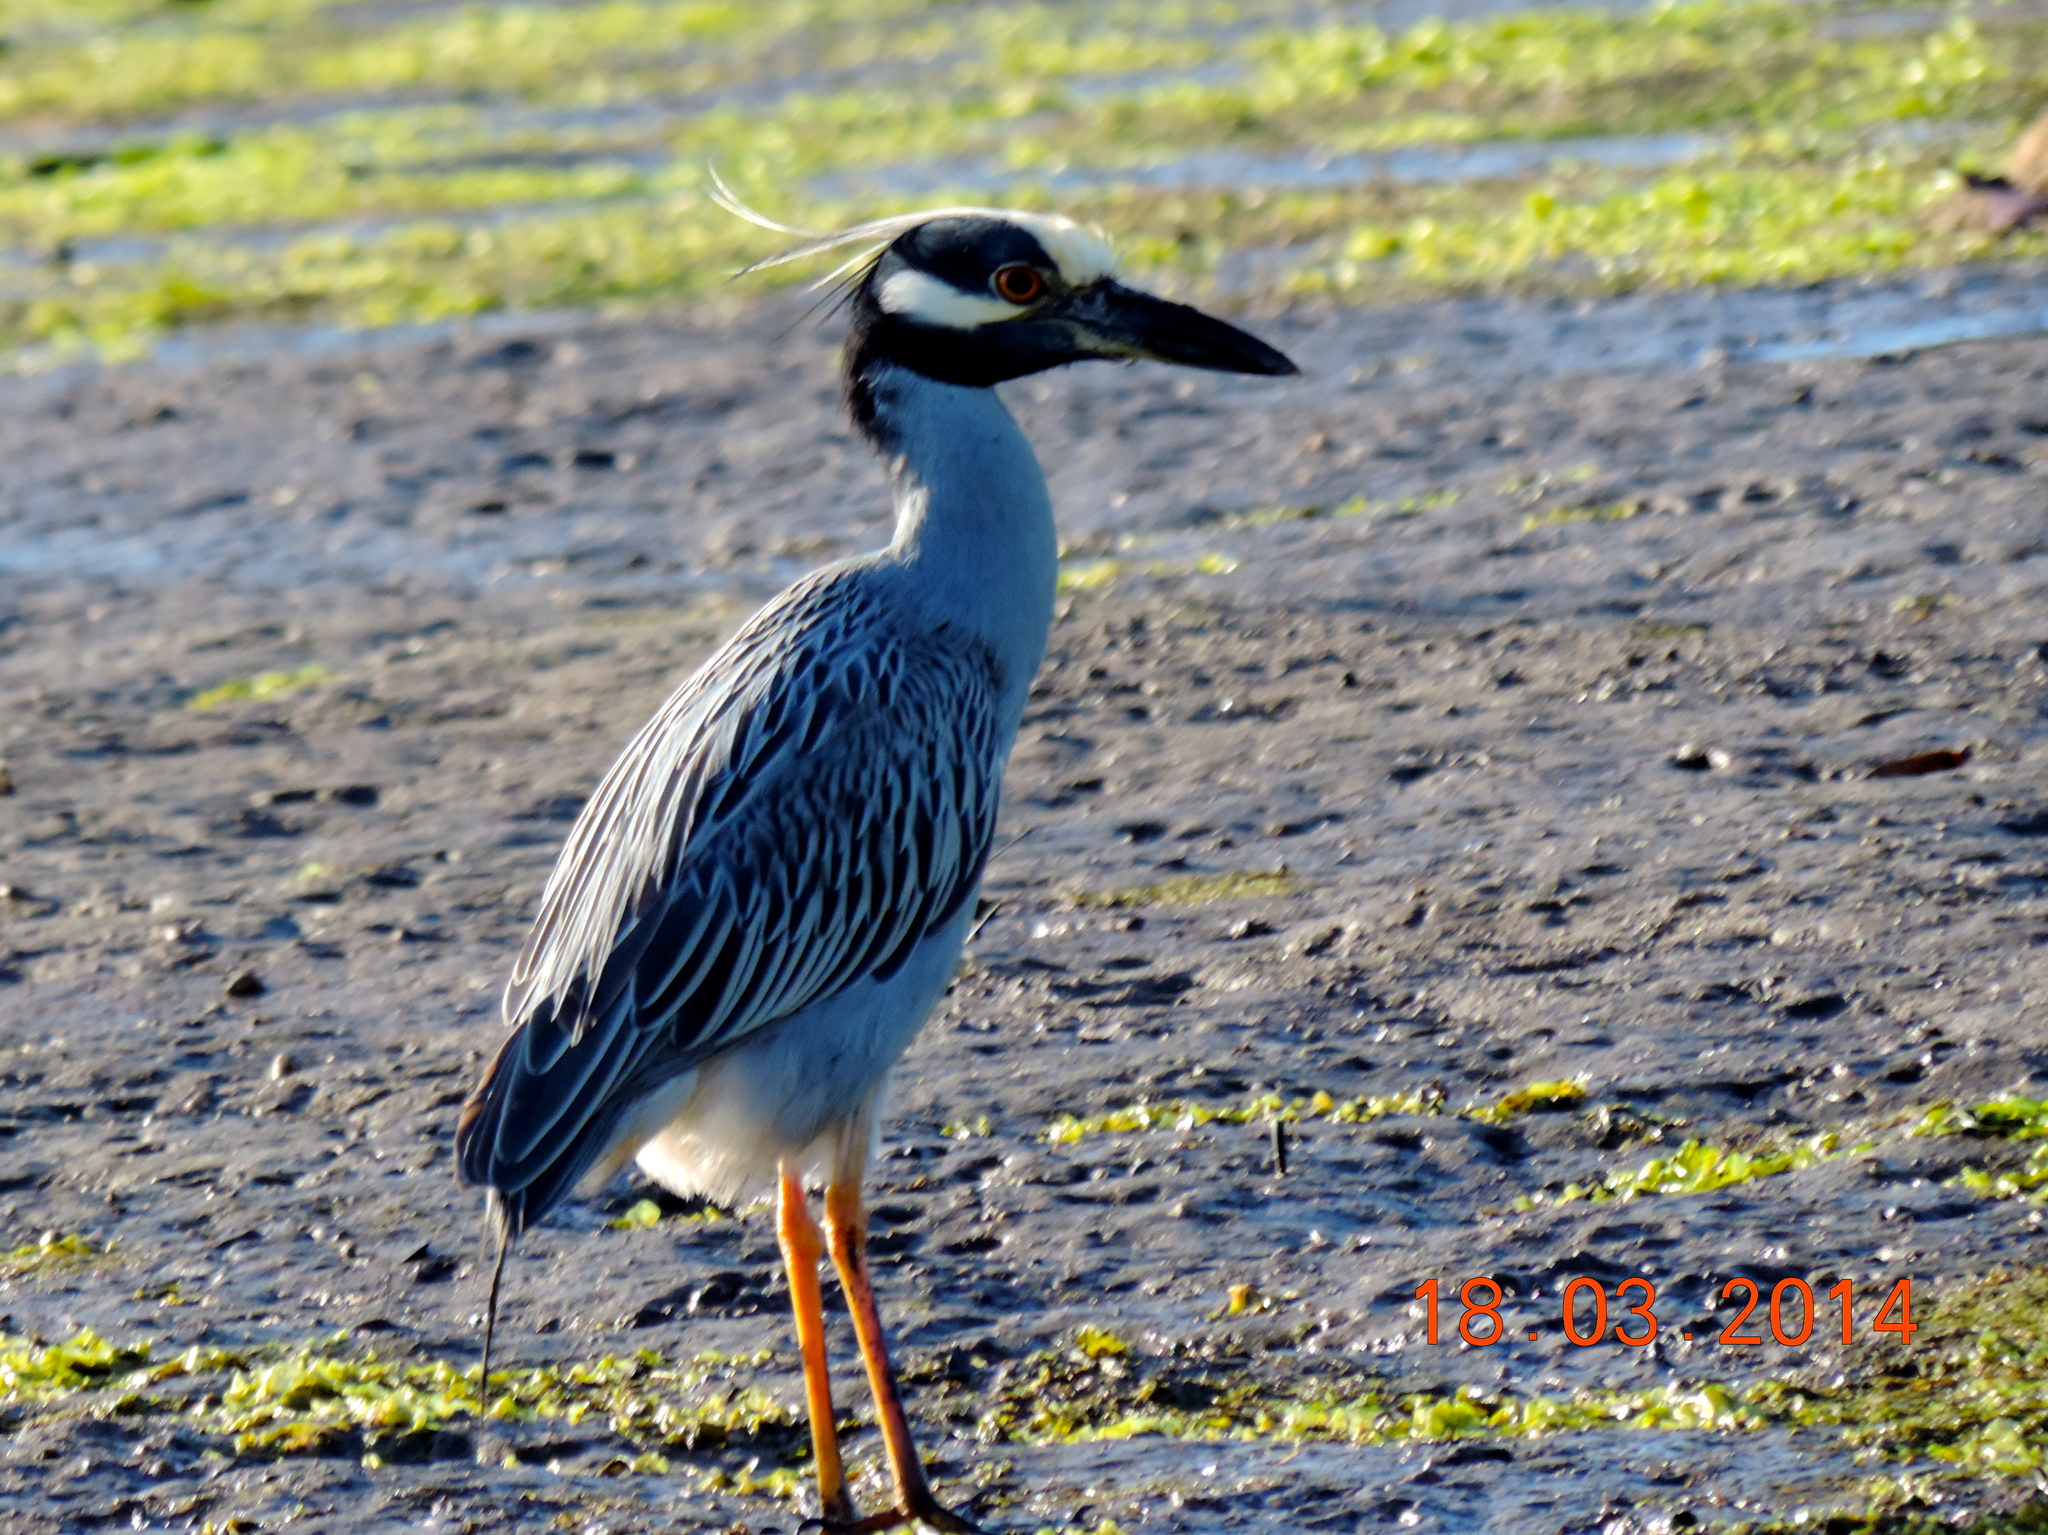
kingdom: Animalia
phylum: Chordata
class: Aves
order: Pelecaniformes
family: Ardeidae
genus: Nyctanassa
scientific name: Nyctanassa violacea
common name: Yellow-crowned night heron
